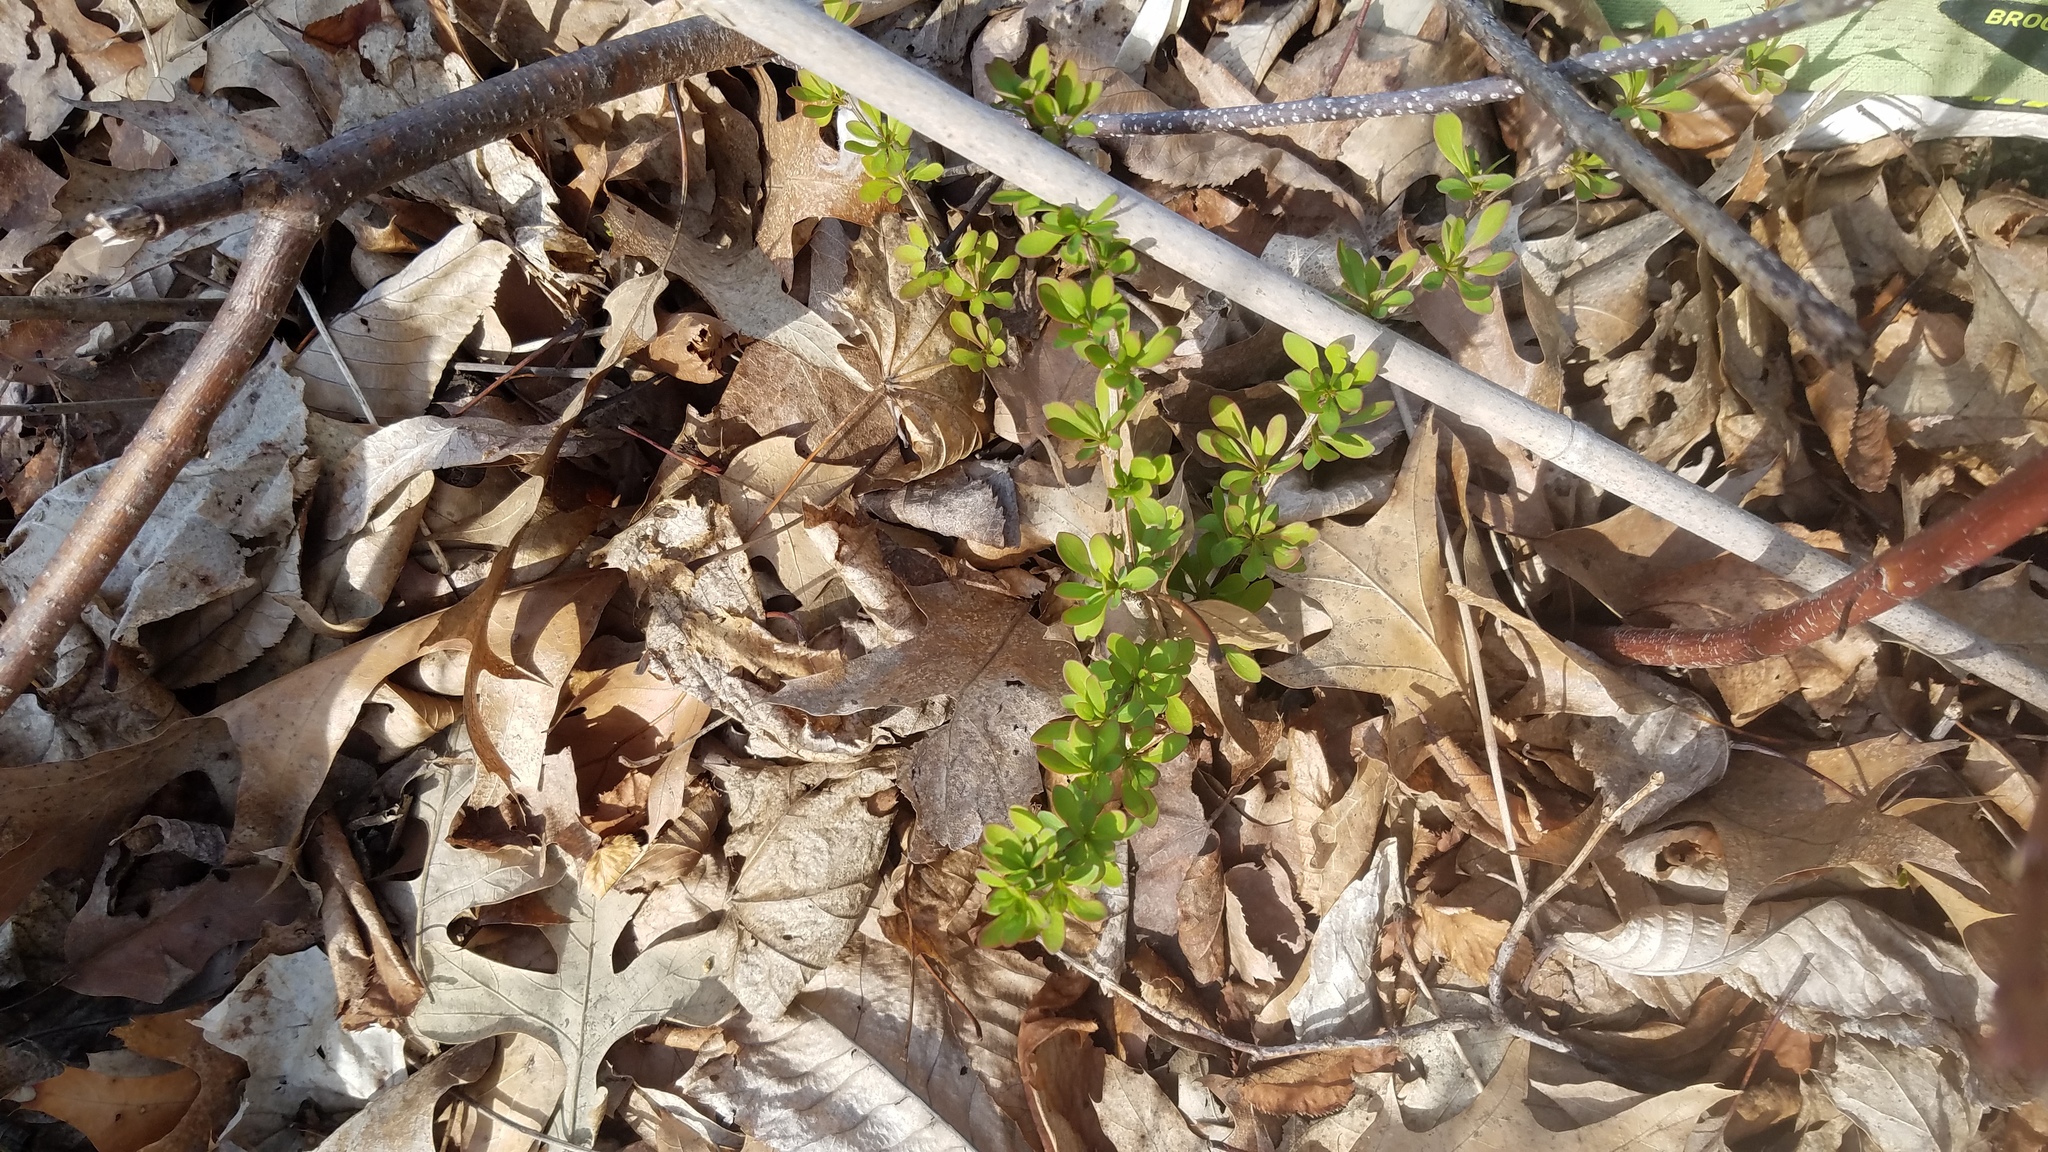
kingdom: Plantae
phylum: Tracheophyta
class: Magnoliopsida
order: Ranunculales
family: Berberidaceae
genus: Berberis
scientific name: Berberis thunbergii
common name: Japanese barberry
